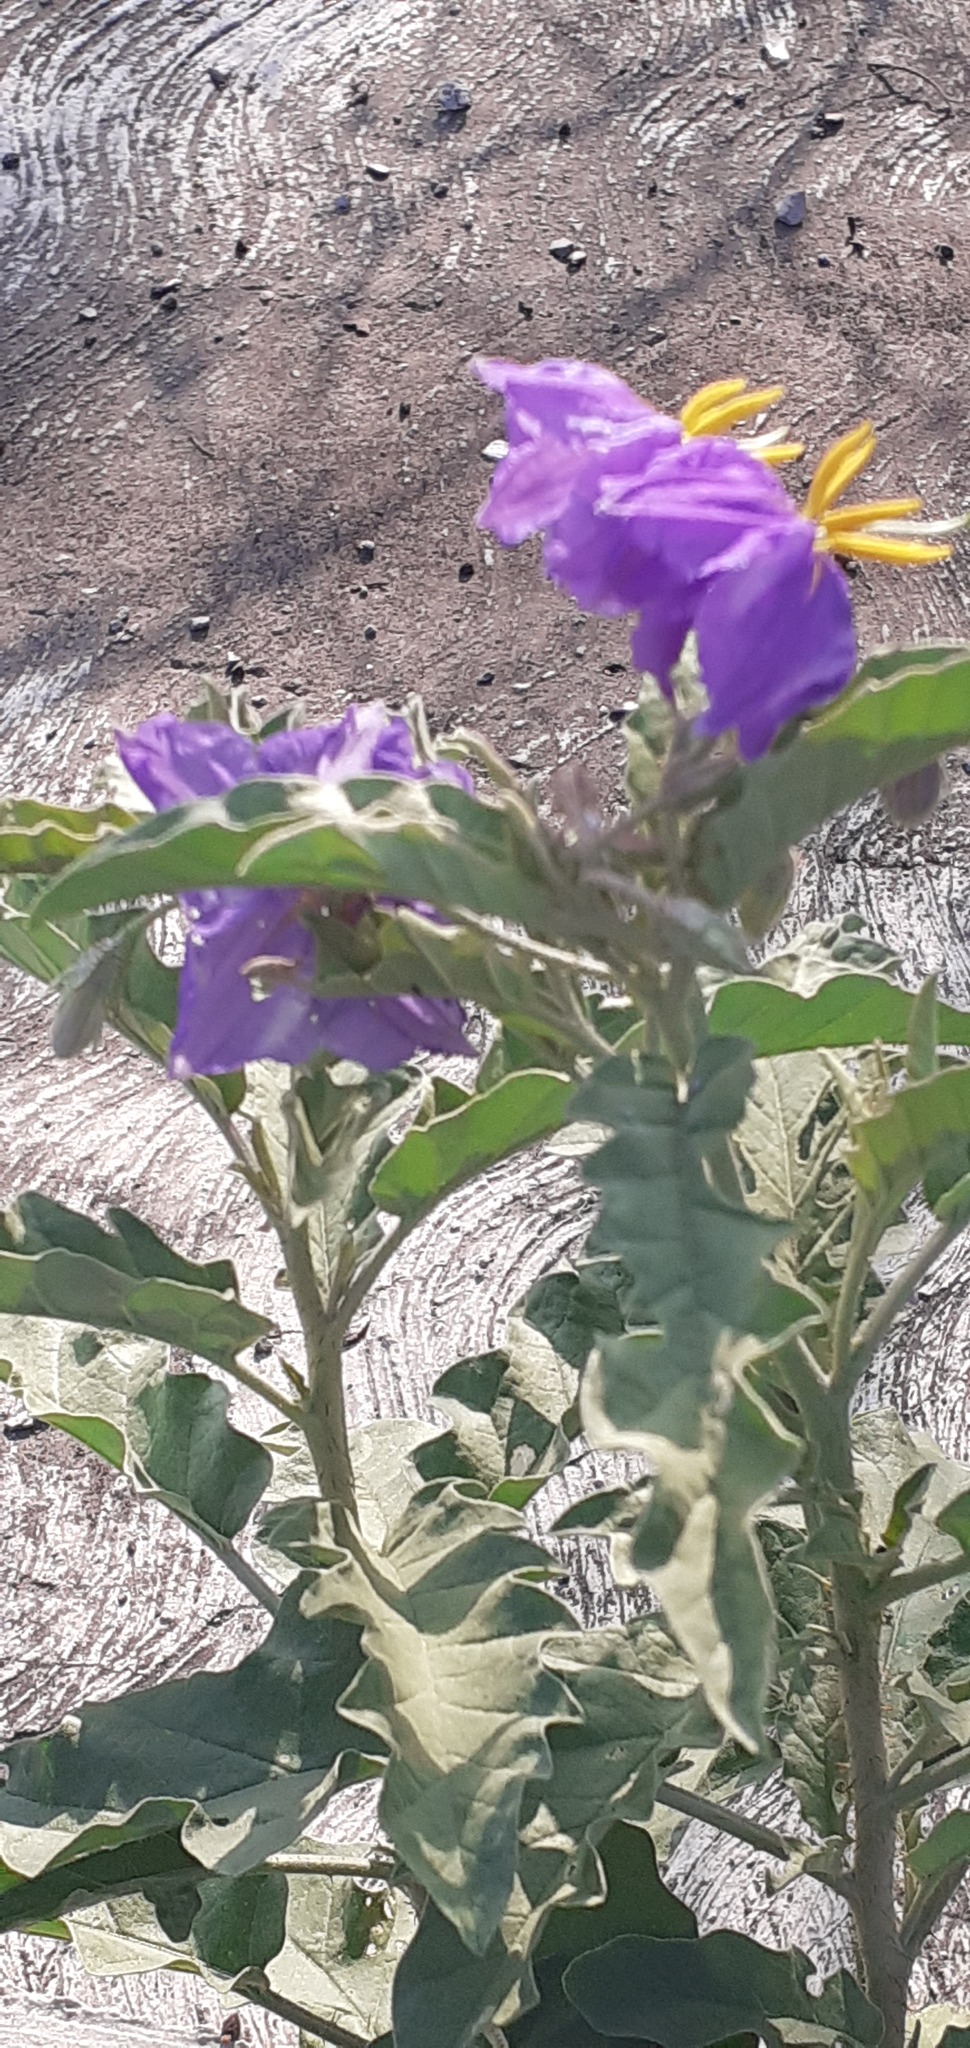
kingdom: Plantae
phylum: Tracheophyta
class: Magnoliopsida
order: Solanales
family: Solanaceae
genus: Solanum
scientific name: Solanum elaeagnifolium
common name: Silverleaf nightshade
